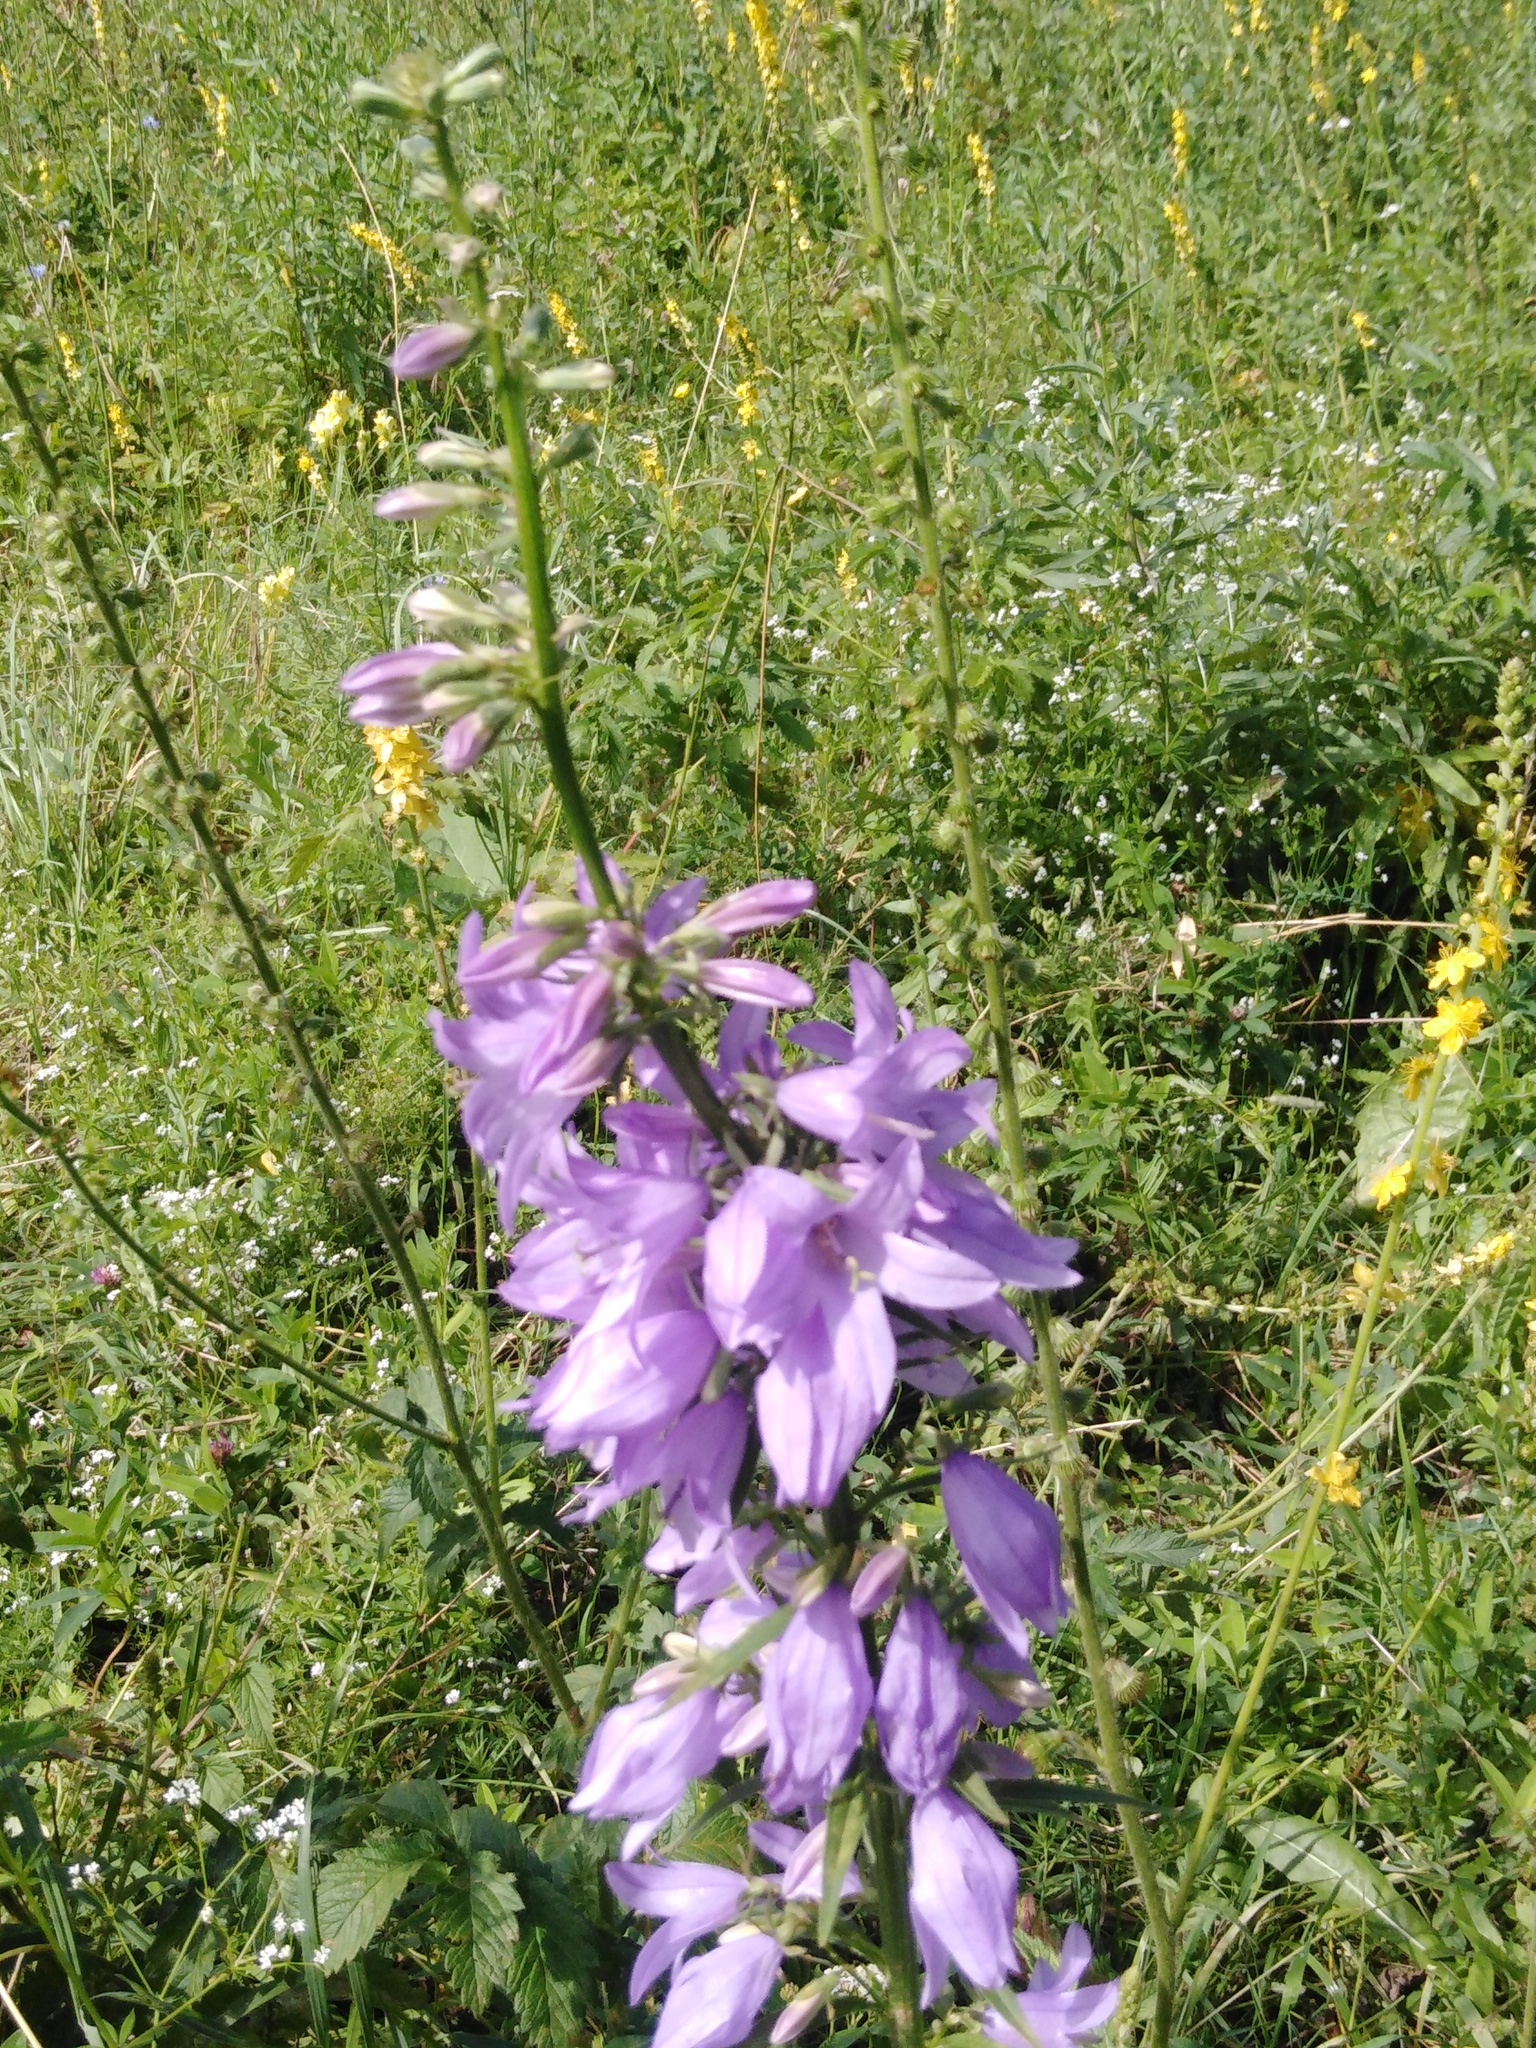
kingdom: Plantae
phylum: Tracheophyta
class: Magnoliopsida
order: Asterales
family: Campanulaceae
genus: Campanula
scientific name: Campanula rapunculoides
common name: Creeping bellflower
